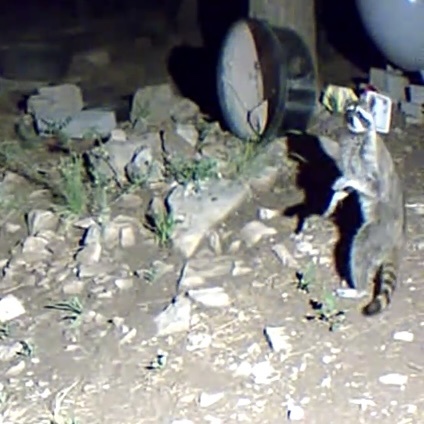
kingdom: Animalia
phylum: Chordata
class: Mammalia
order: Carnivora
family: Procyonidae
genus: Procyon
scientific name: Procyon lotor
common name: Raccoon
